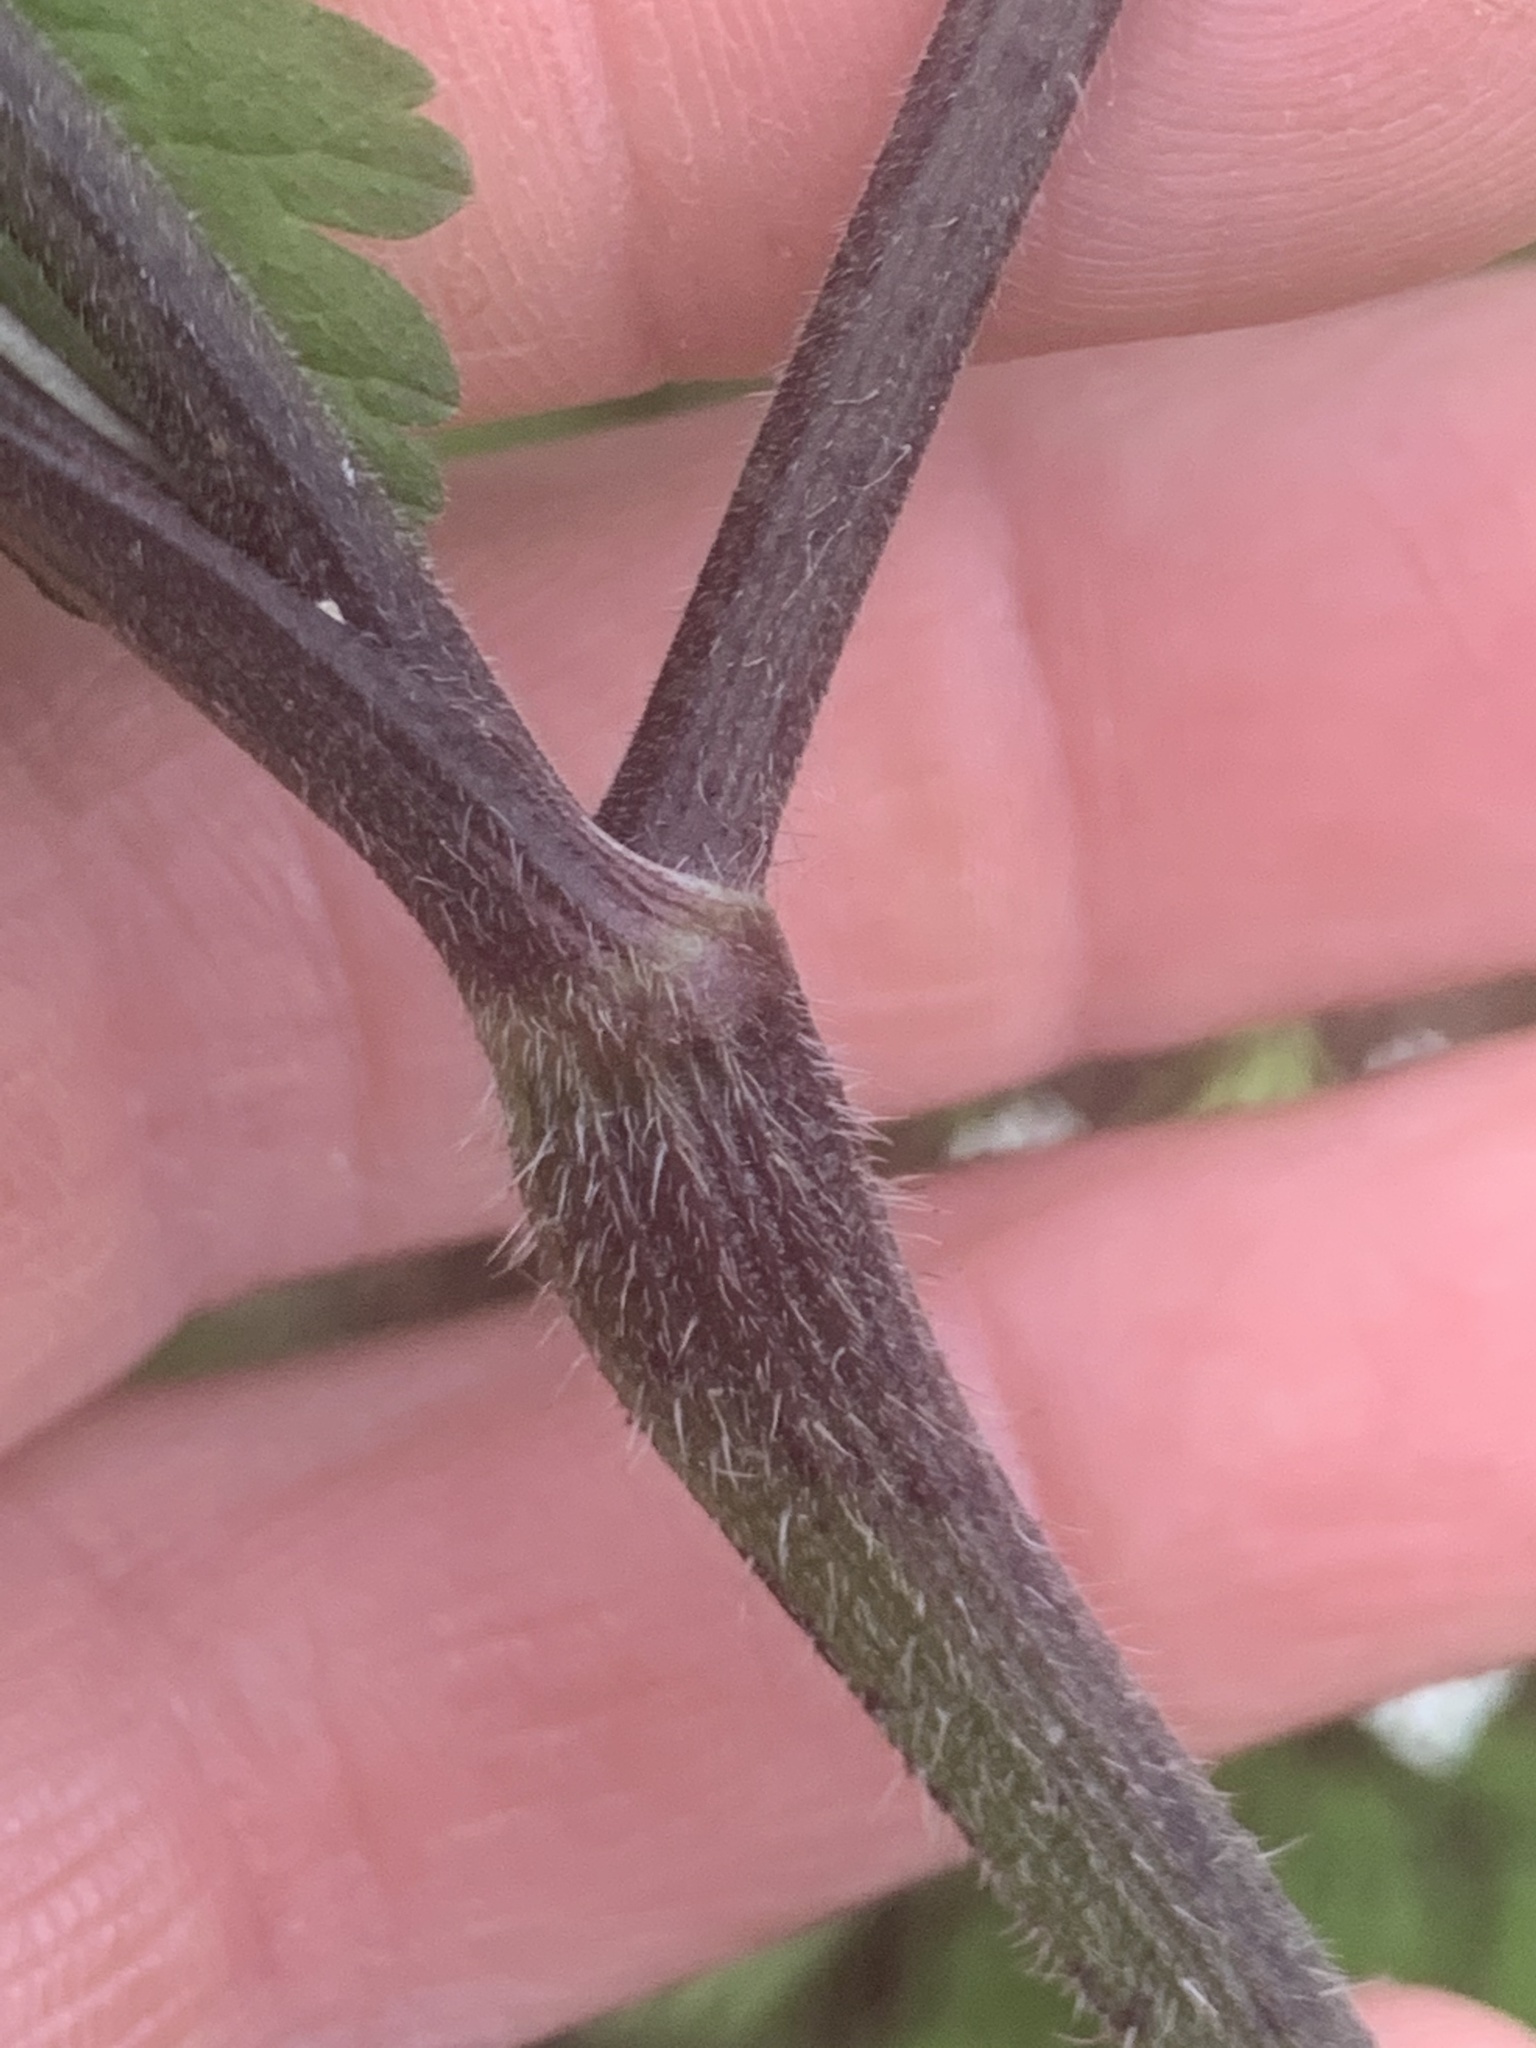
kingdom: Plantae
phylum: Tracheophyta
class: Magnoliopsida
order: Apiales
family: Apiaceae
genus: Chaerophyllum
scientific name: Chaerophyllum temulum
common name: Rough chervil
